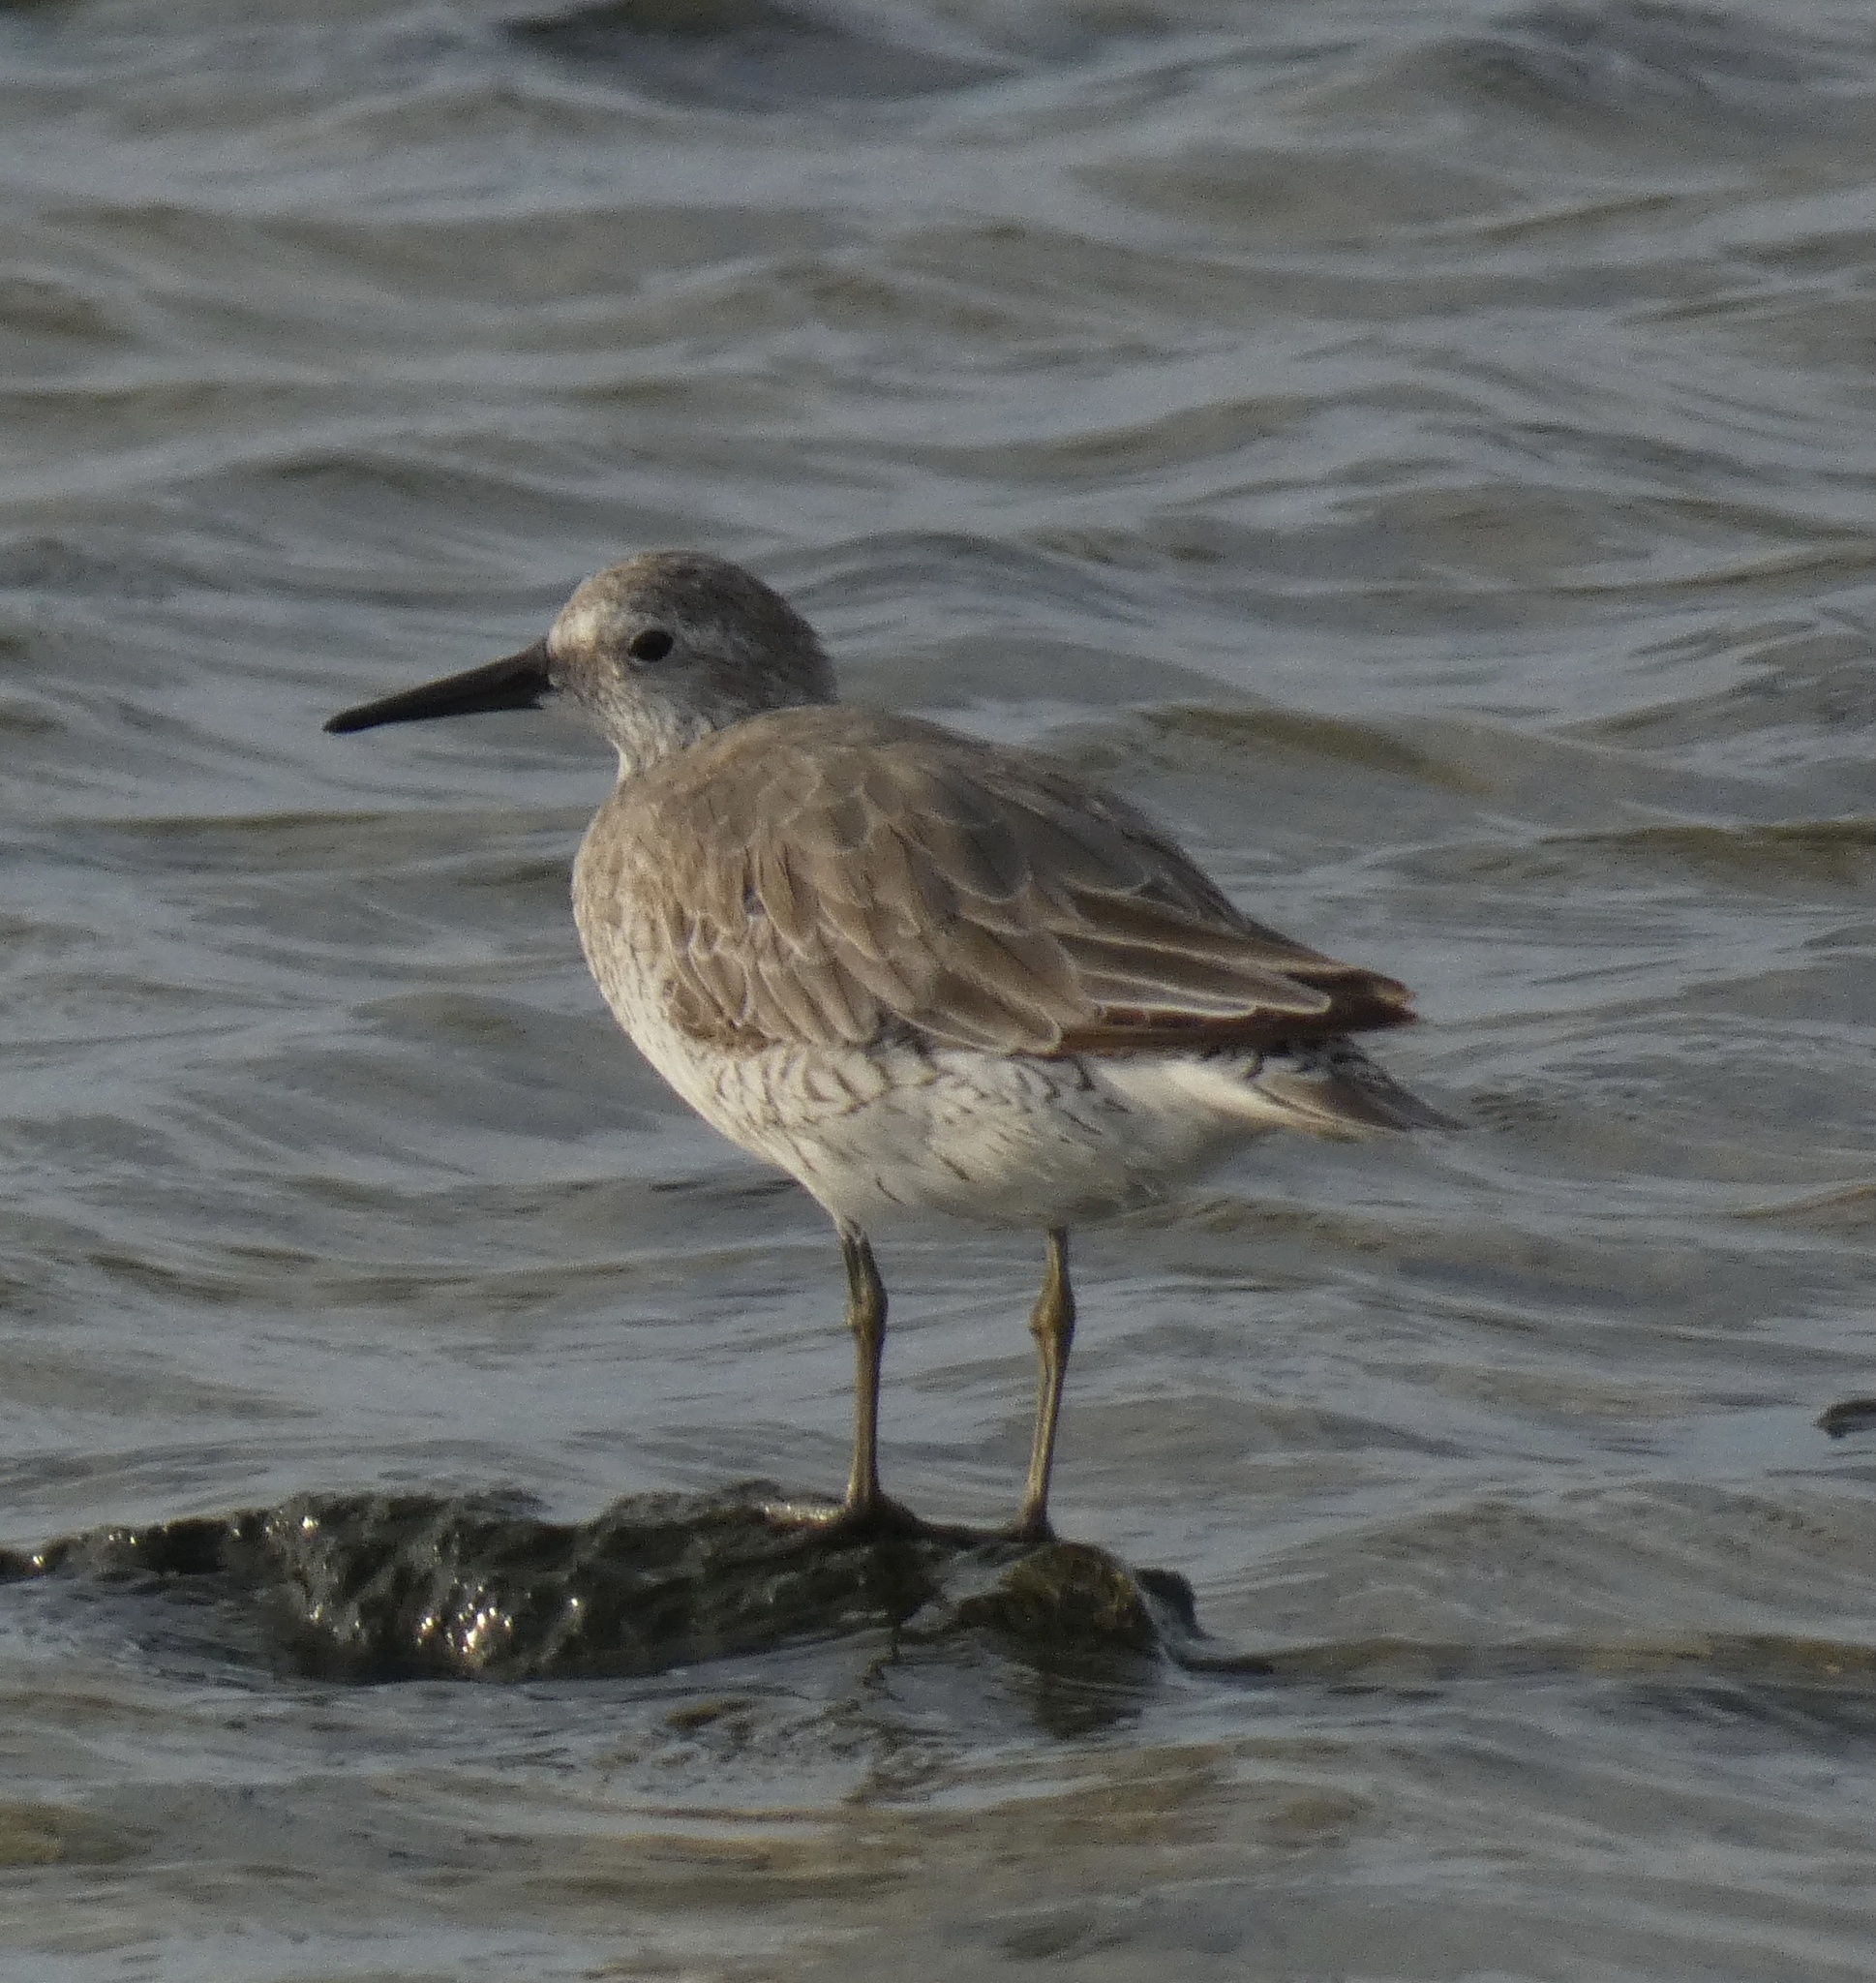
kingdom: Animalia
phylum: Chordata
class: Aves
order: Charadriiformes
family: Scolopacidae
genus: Calidris
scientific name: Calidris canutus
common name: Red knot
